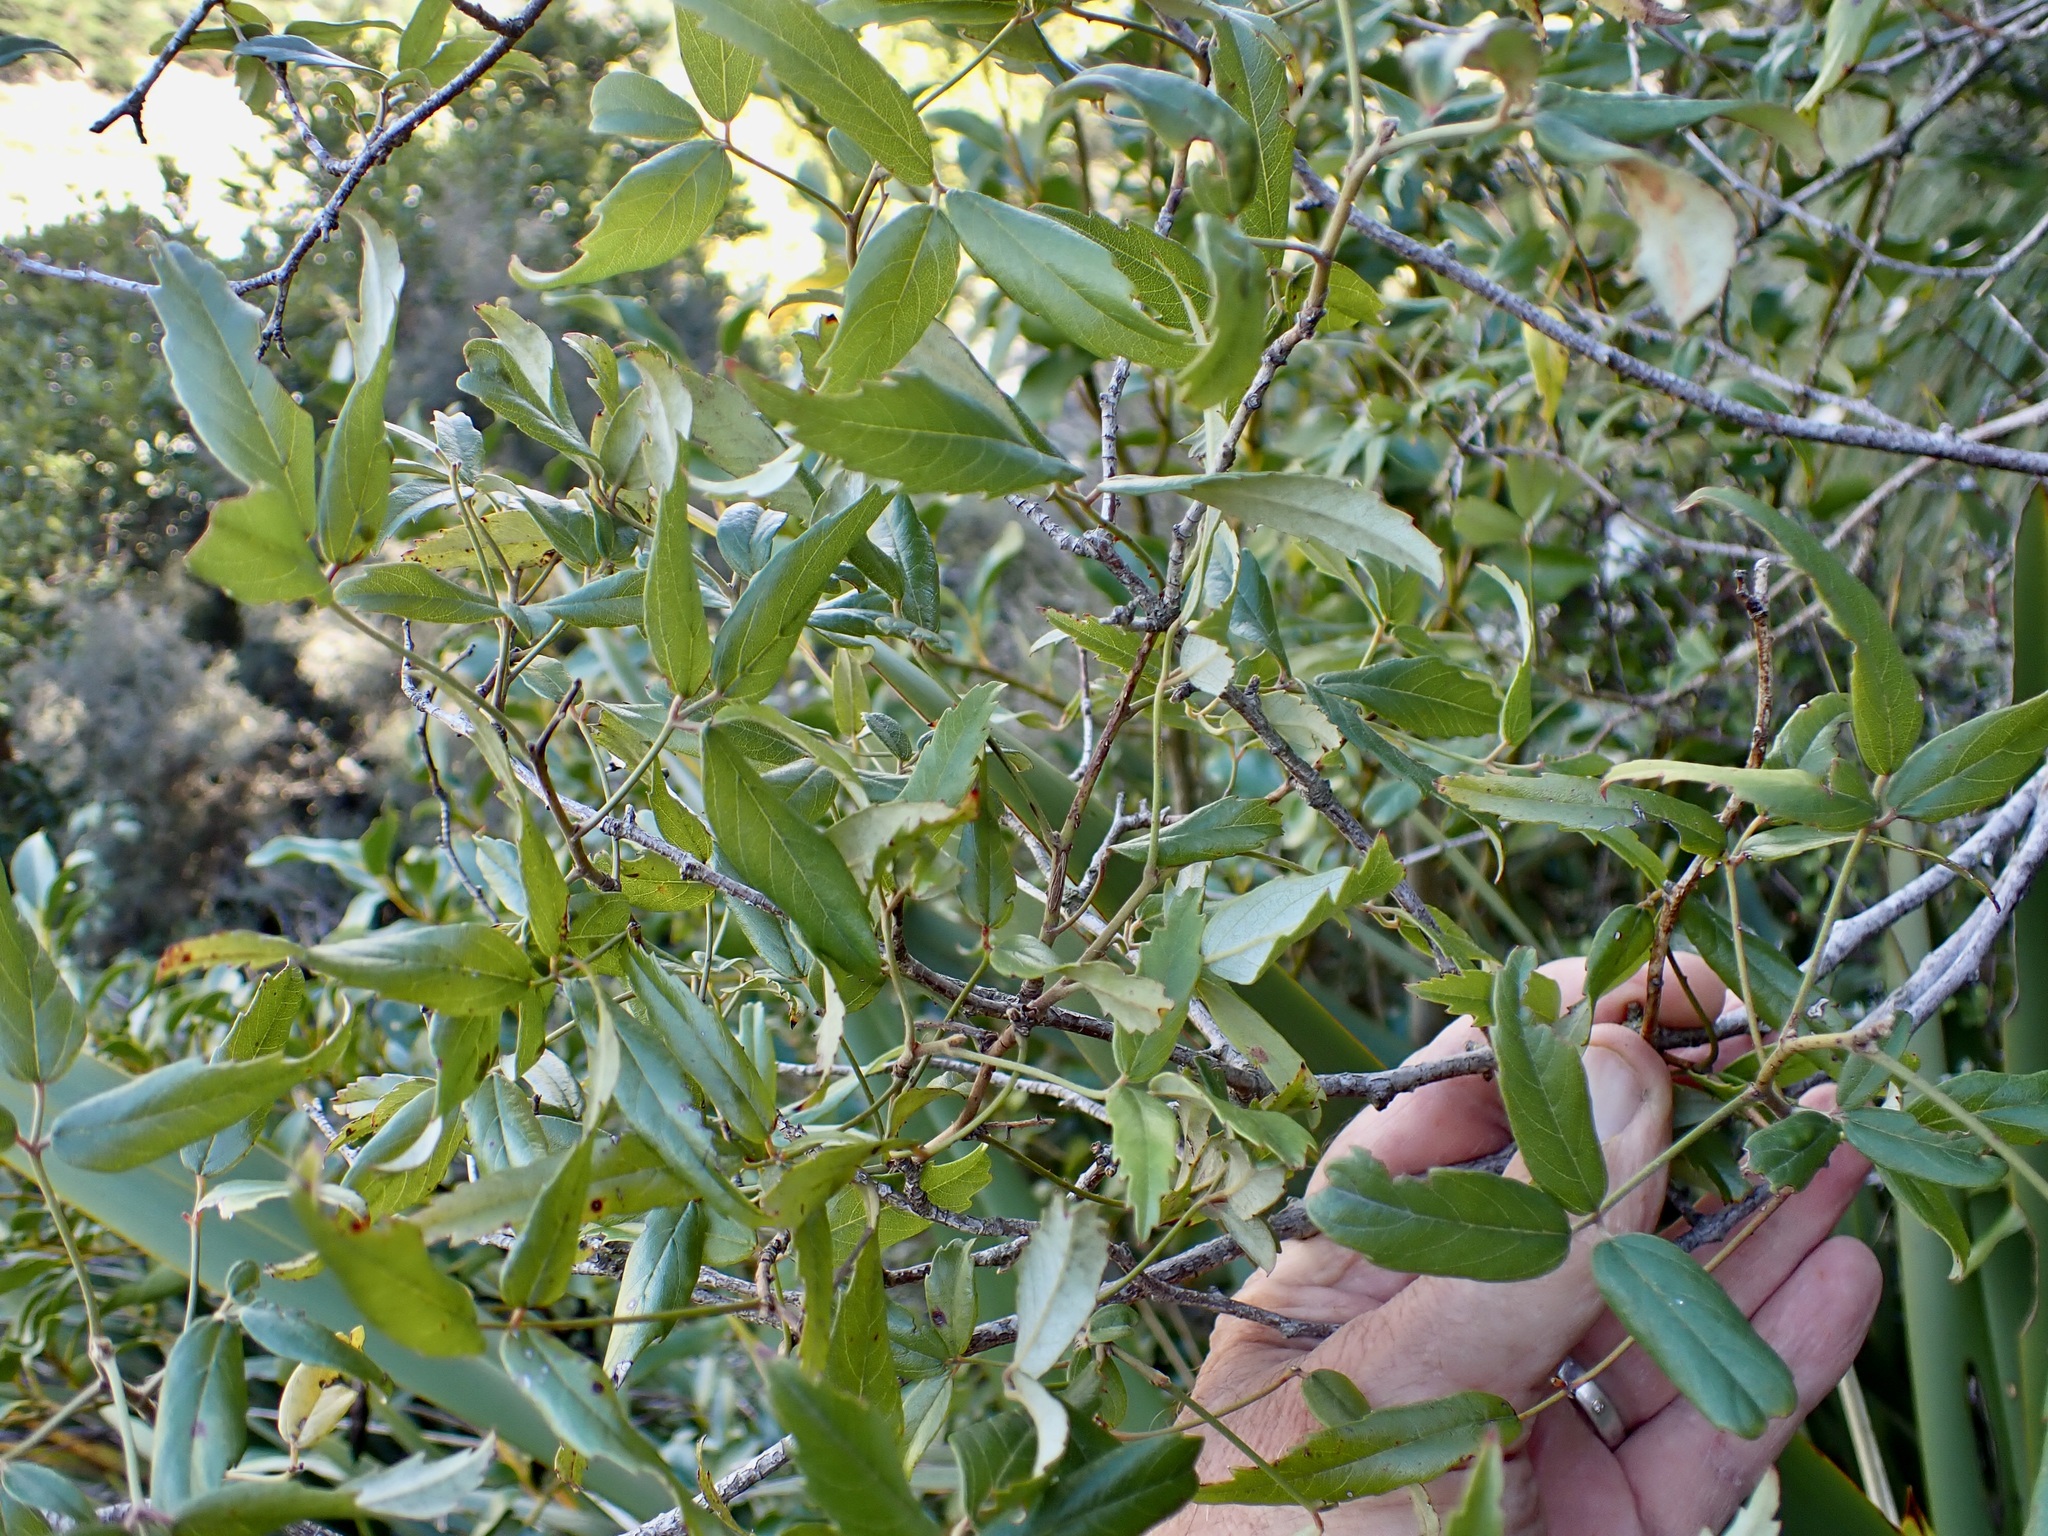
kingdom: Plantae
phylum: Tracheophyta
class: Magnoliopsida
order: Rosales
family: Rosaceae
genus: Rubus
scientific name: Rubus schmidelioides
